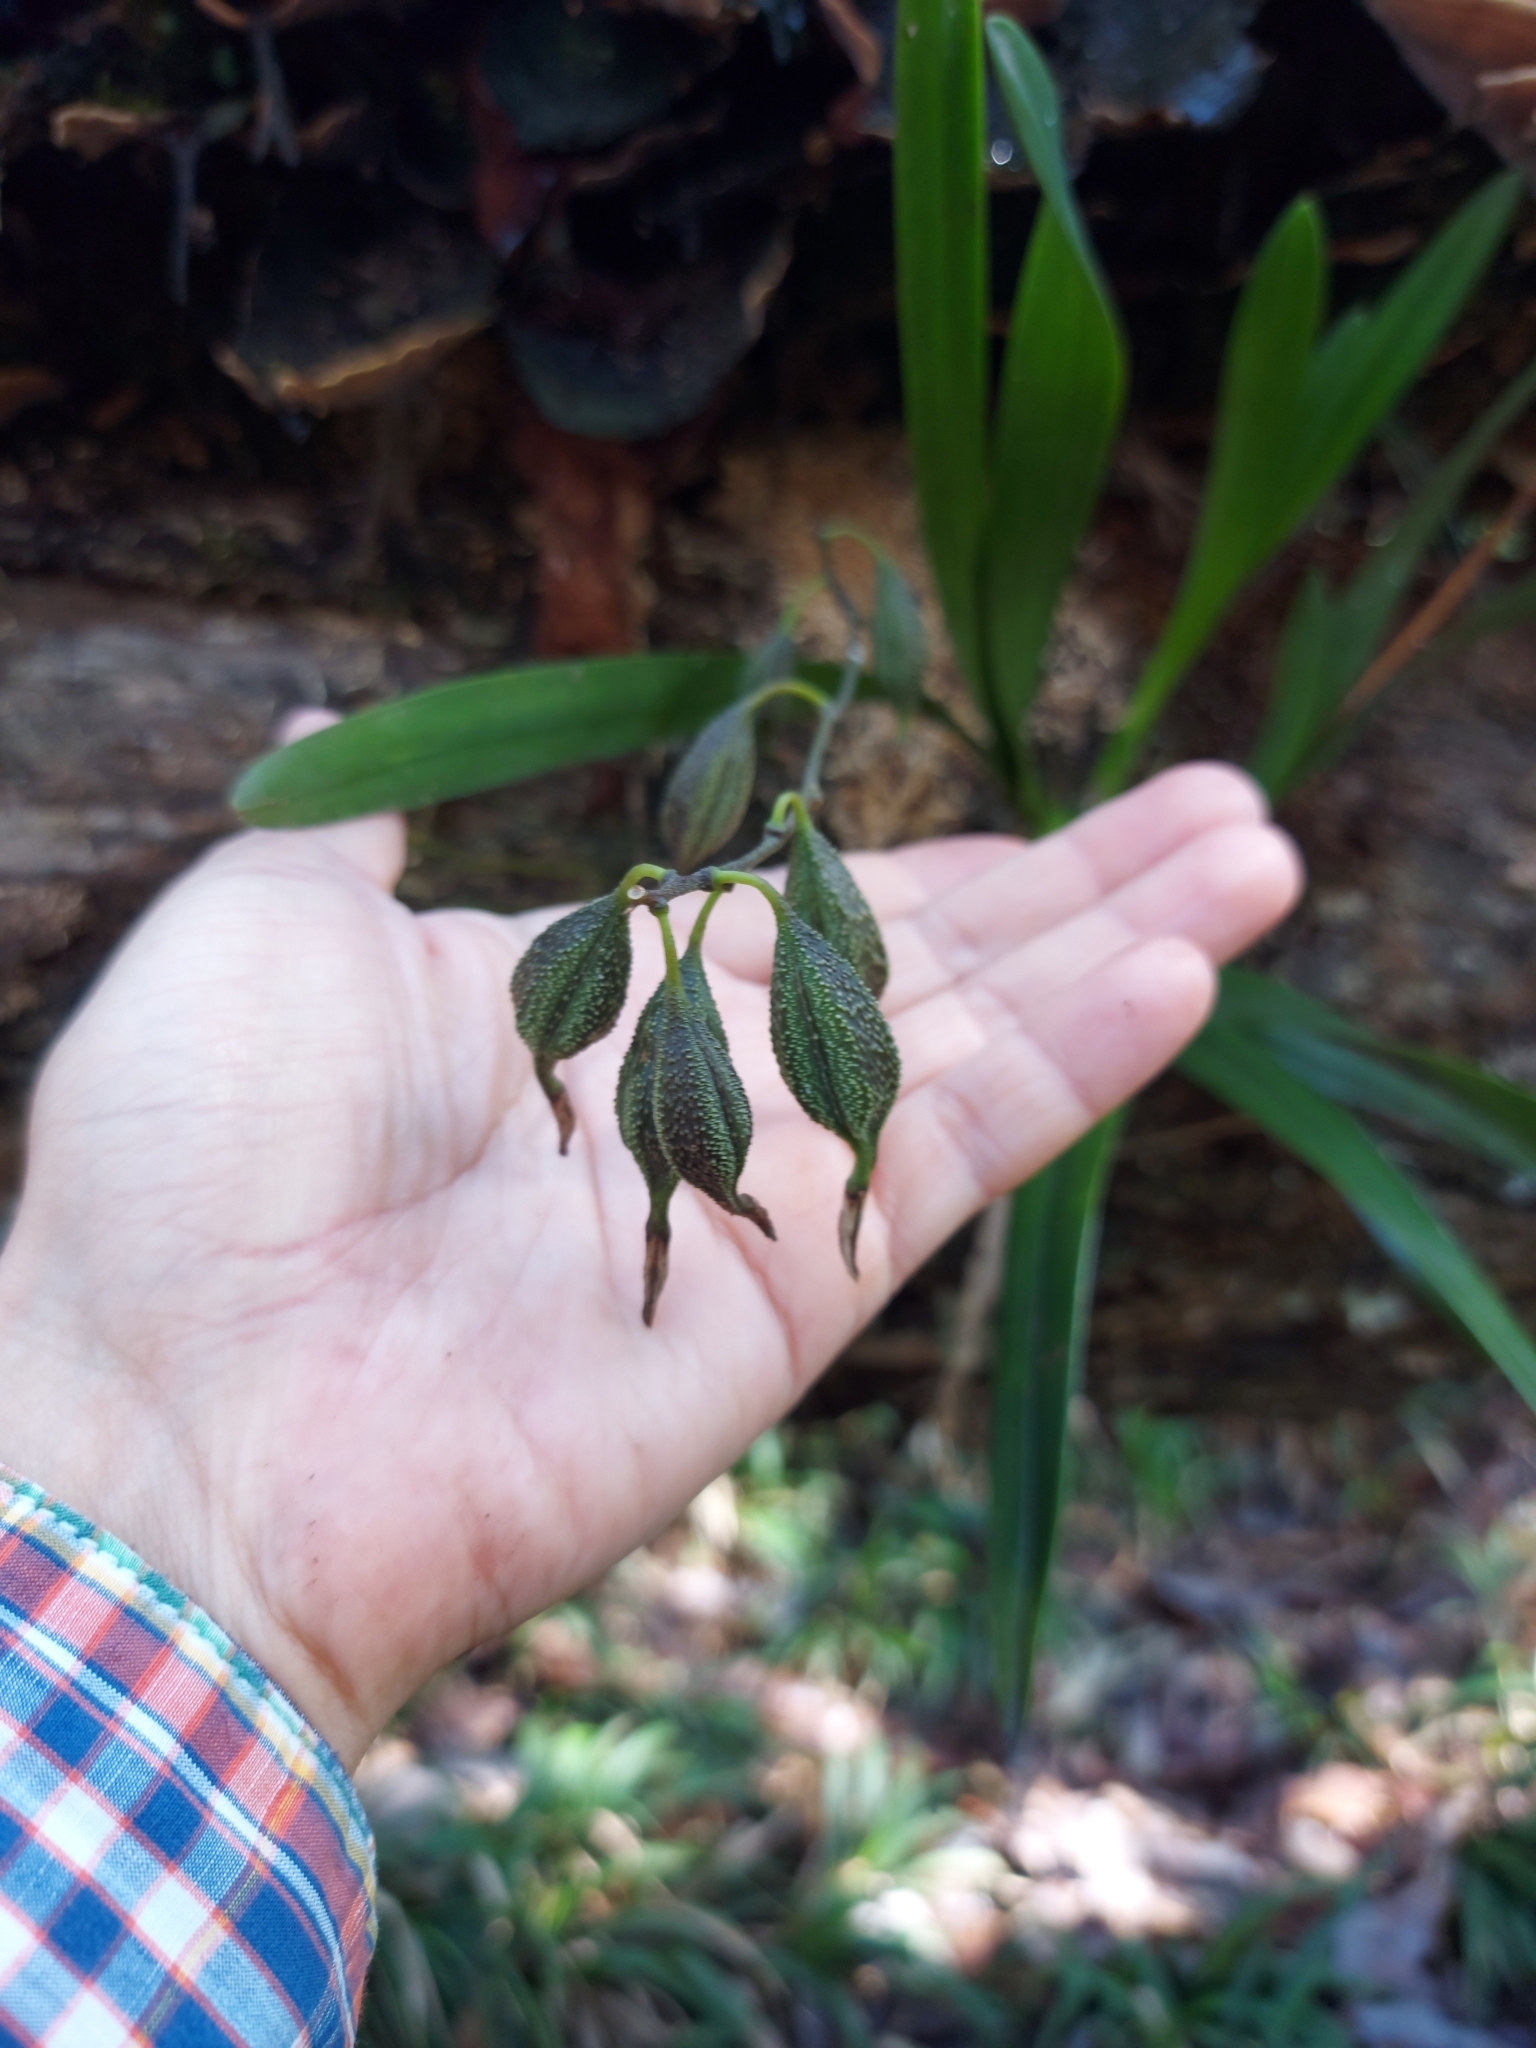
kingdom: Plantae
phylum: Tracheophyta
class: Liliopsida
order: Asparagales
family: Orchidaceae
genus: Encyclia
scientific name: Encyclia gravida
